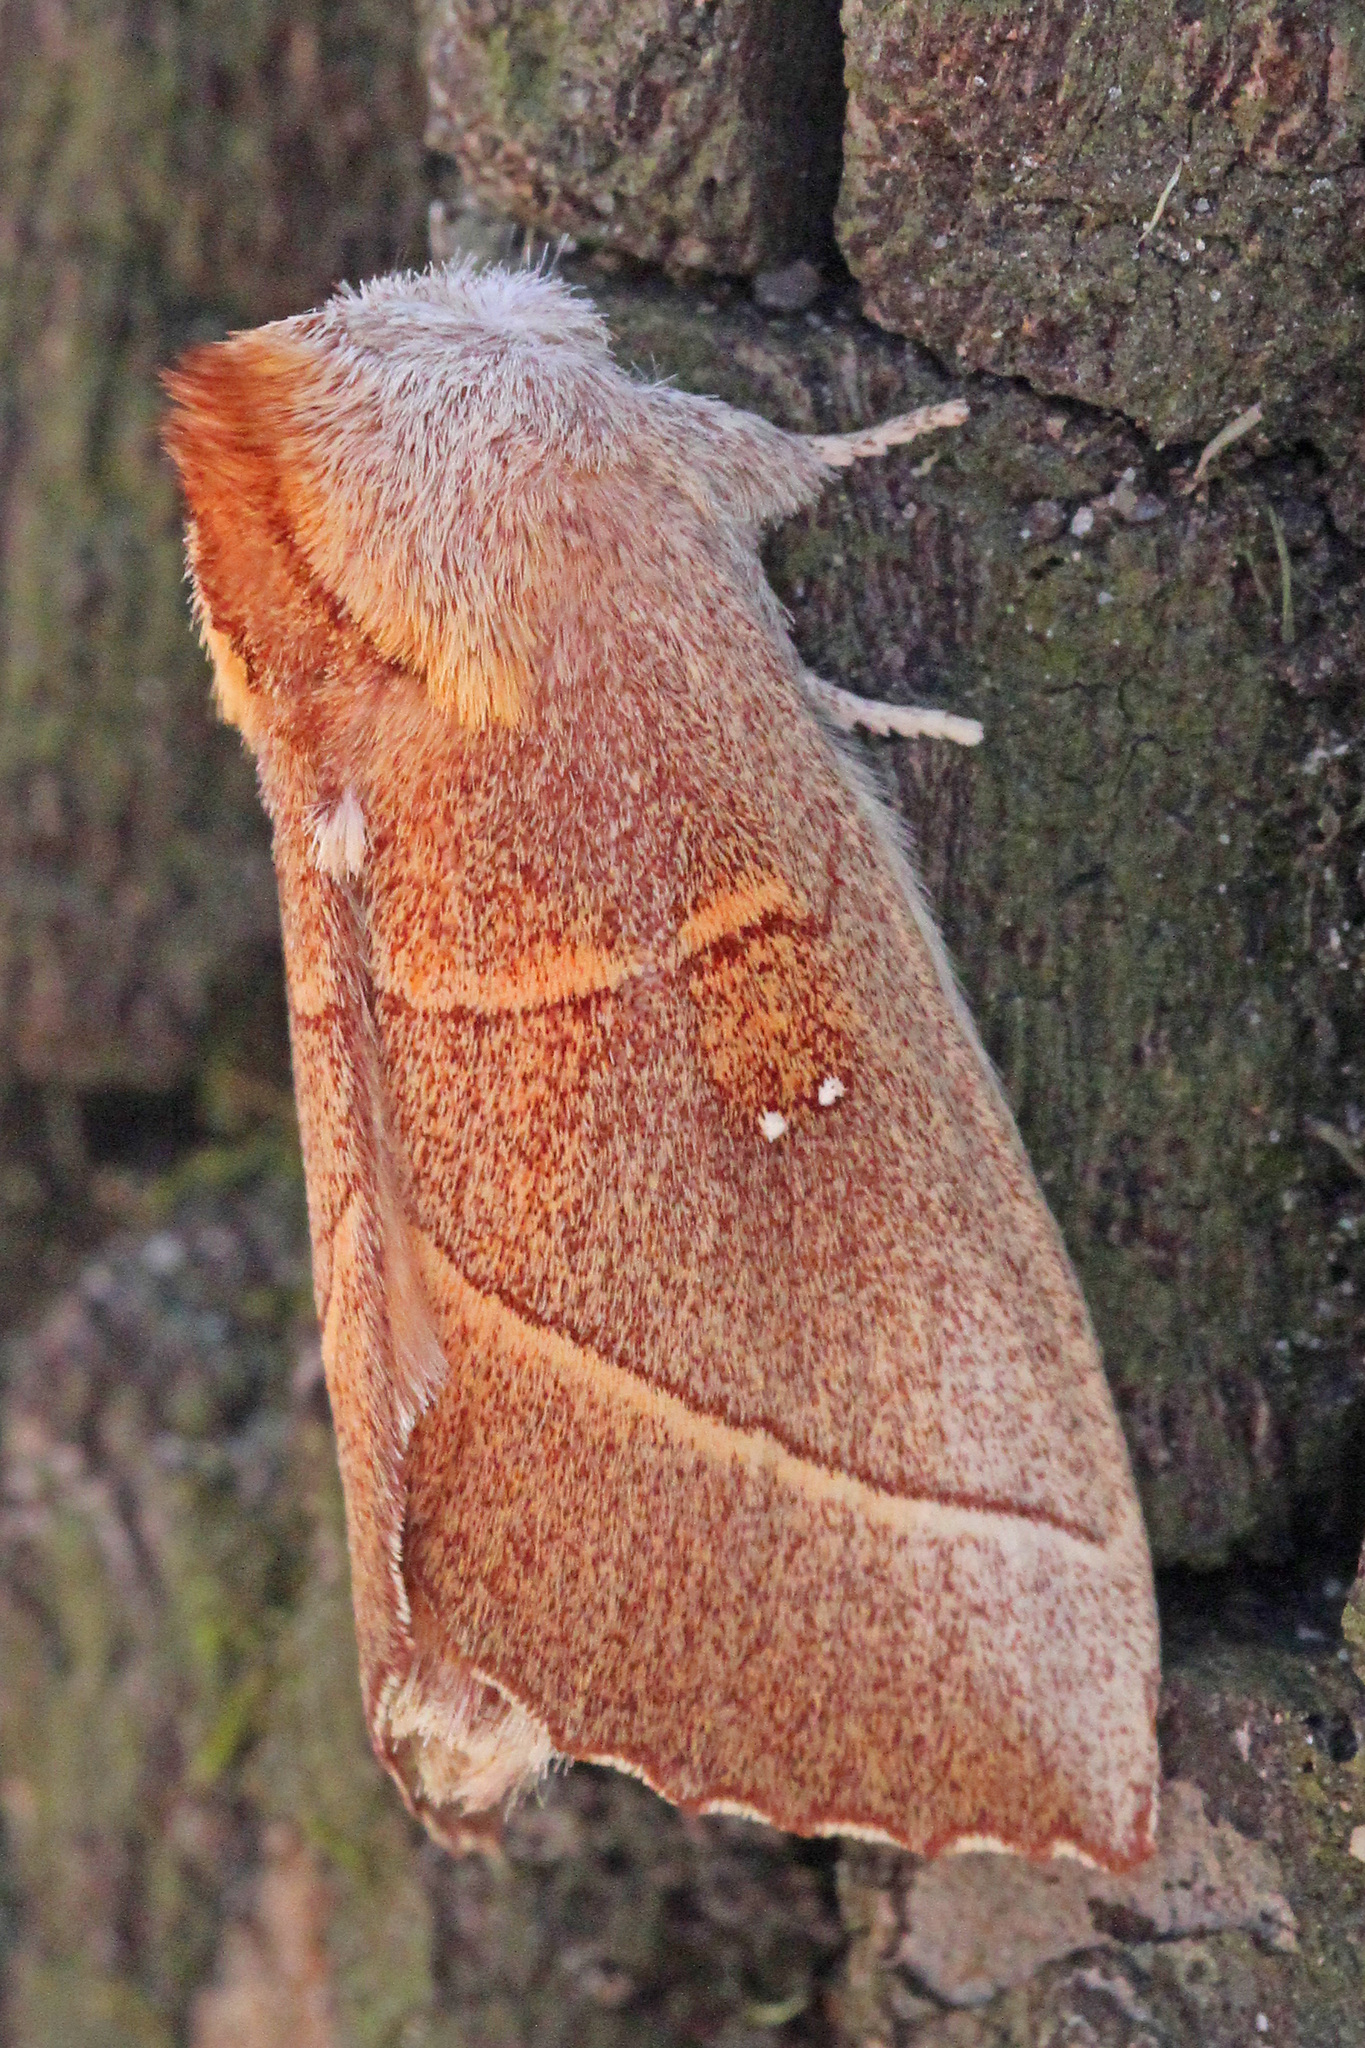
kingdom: Animalia
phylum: Arthropoda
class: Insecta
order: Lepidoptera
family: Notodontidae
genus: Nadata
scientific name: Nadata gibbosa
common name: White-dotted prominent
